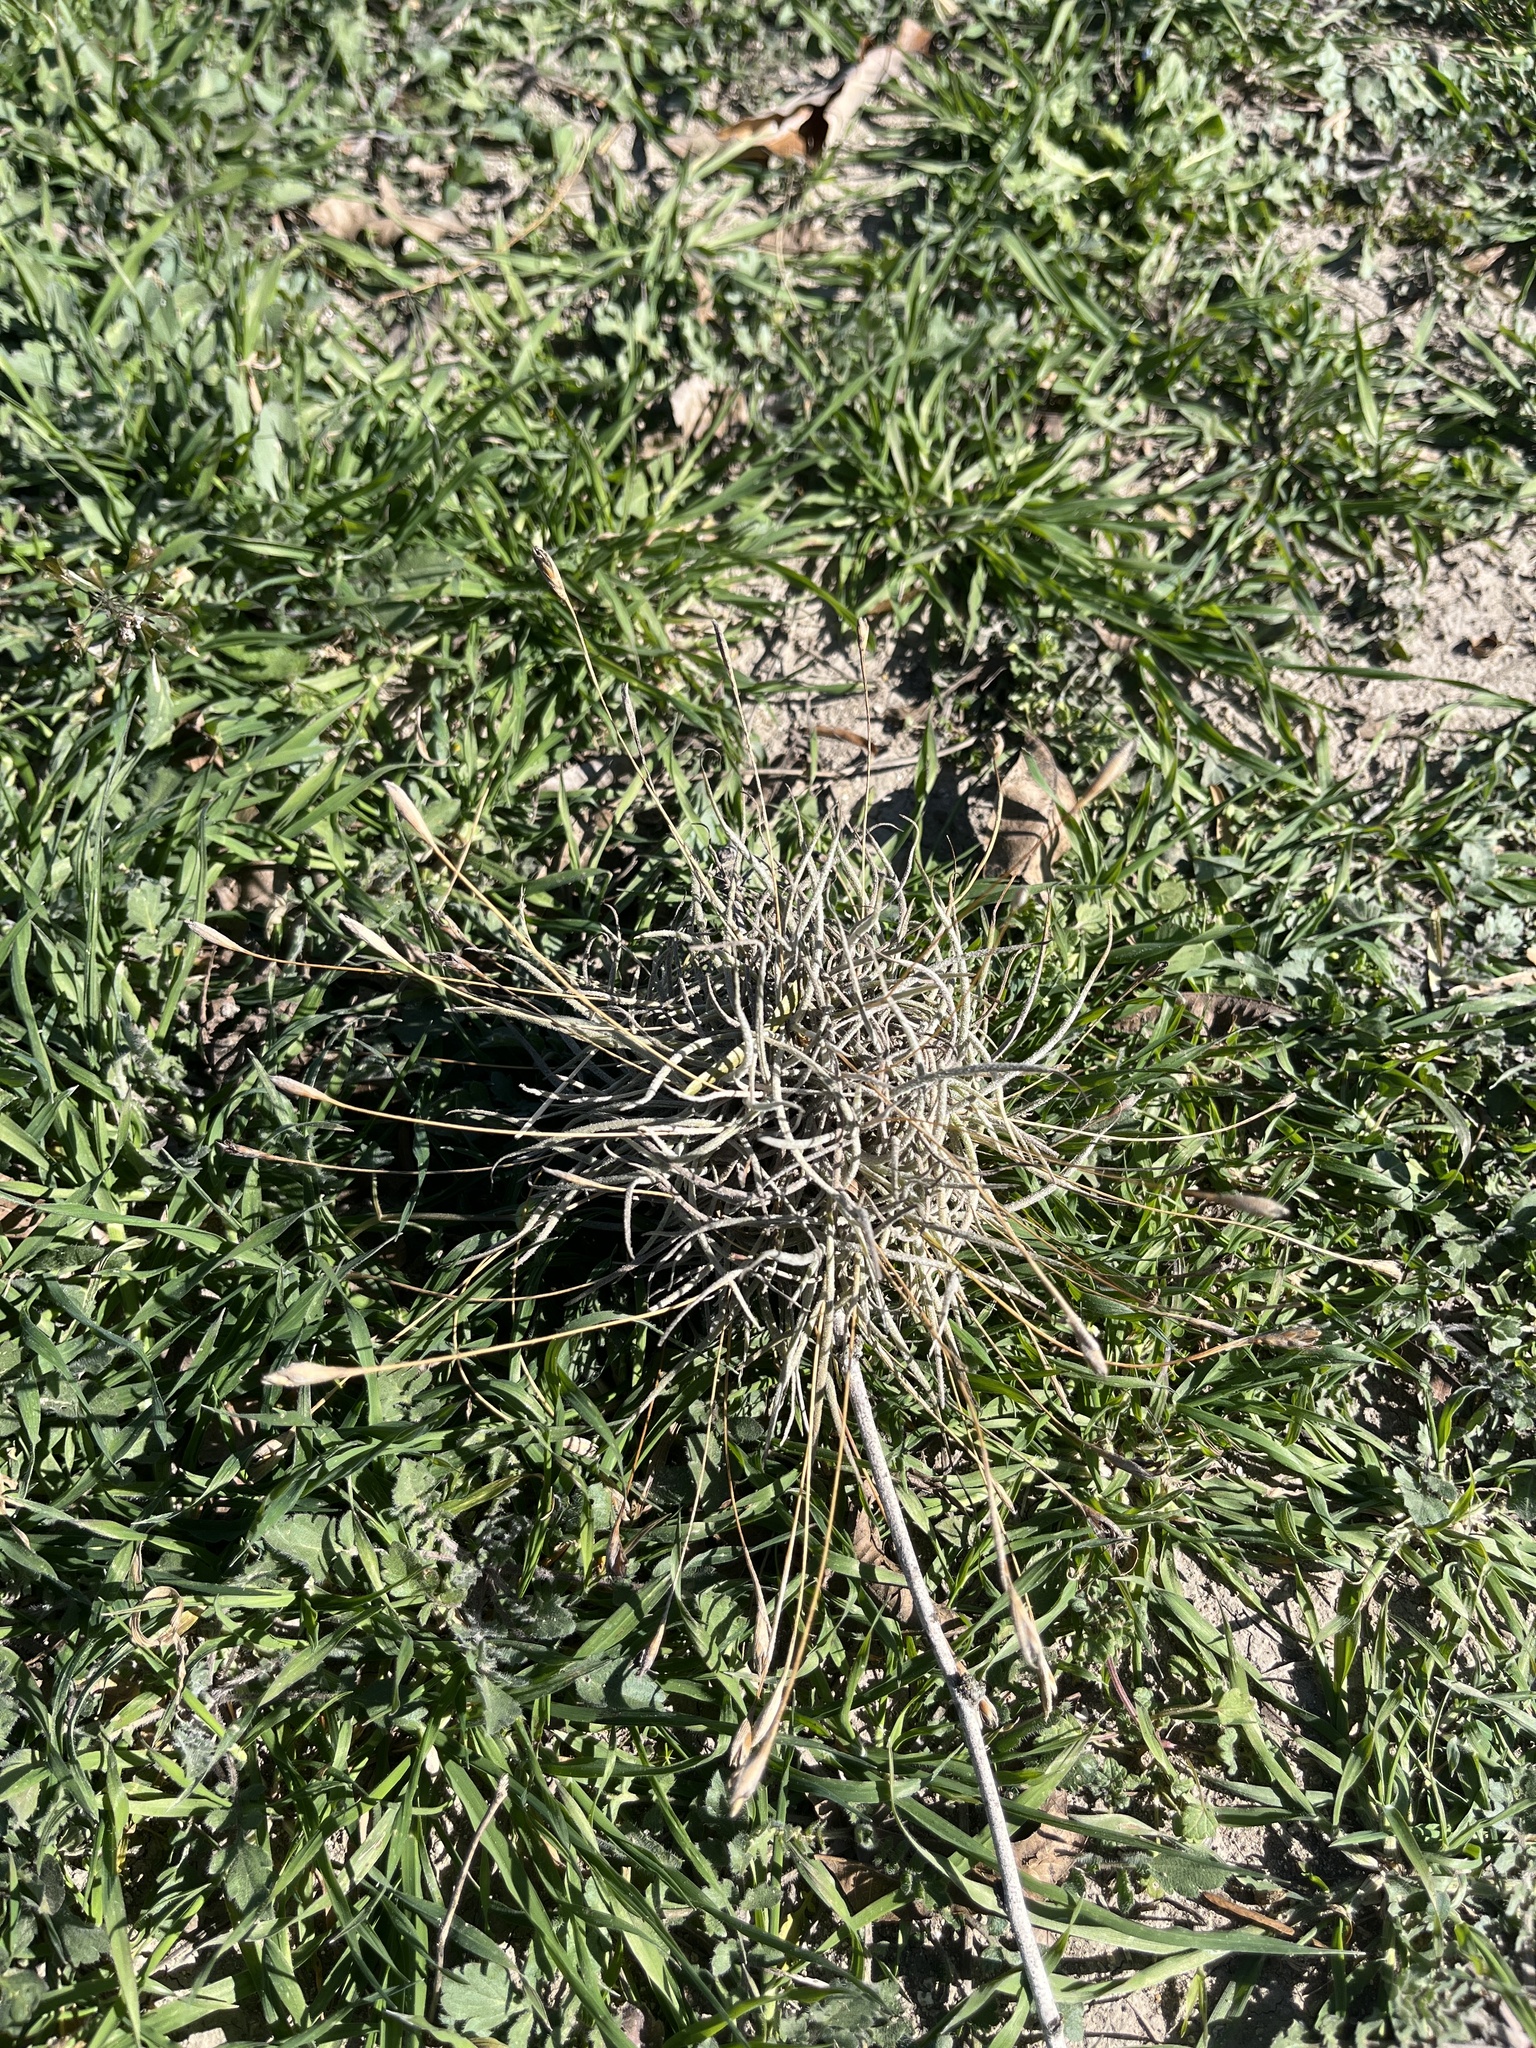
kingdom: Plantae
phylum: Tracheophyta
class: Liliopsida
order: Poales
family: Bromeliaceae
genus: Tillandsia
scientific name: Tillandsia recurvata
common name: Small ballmoss
